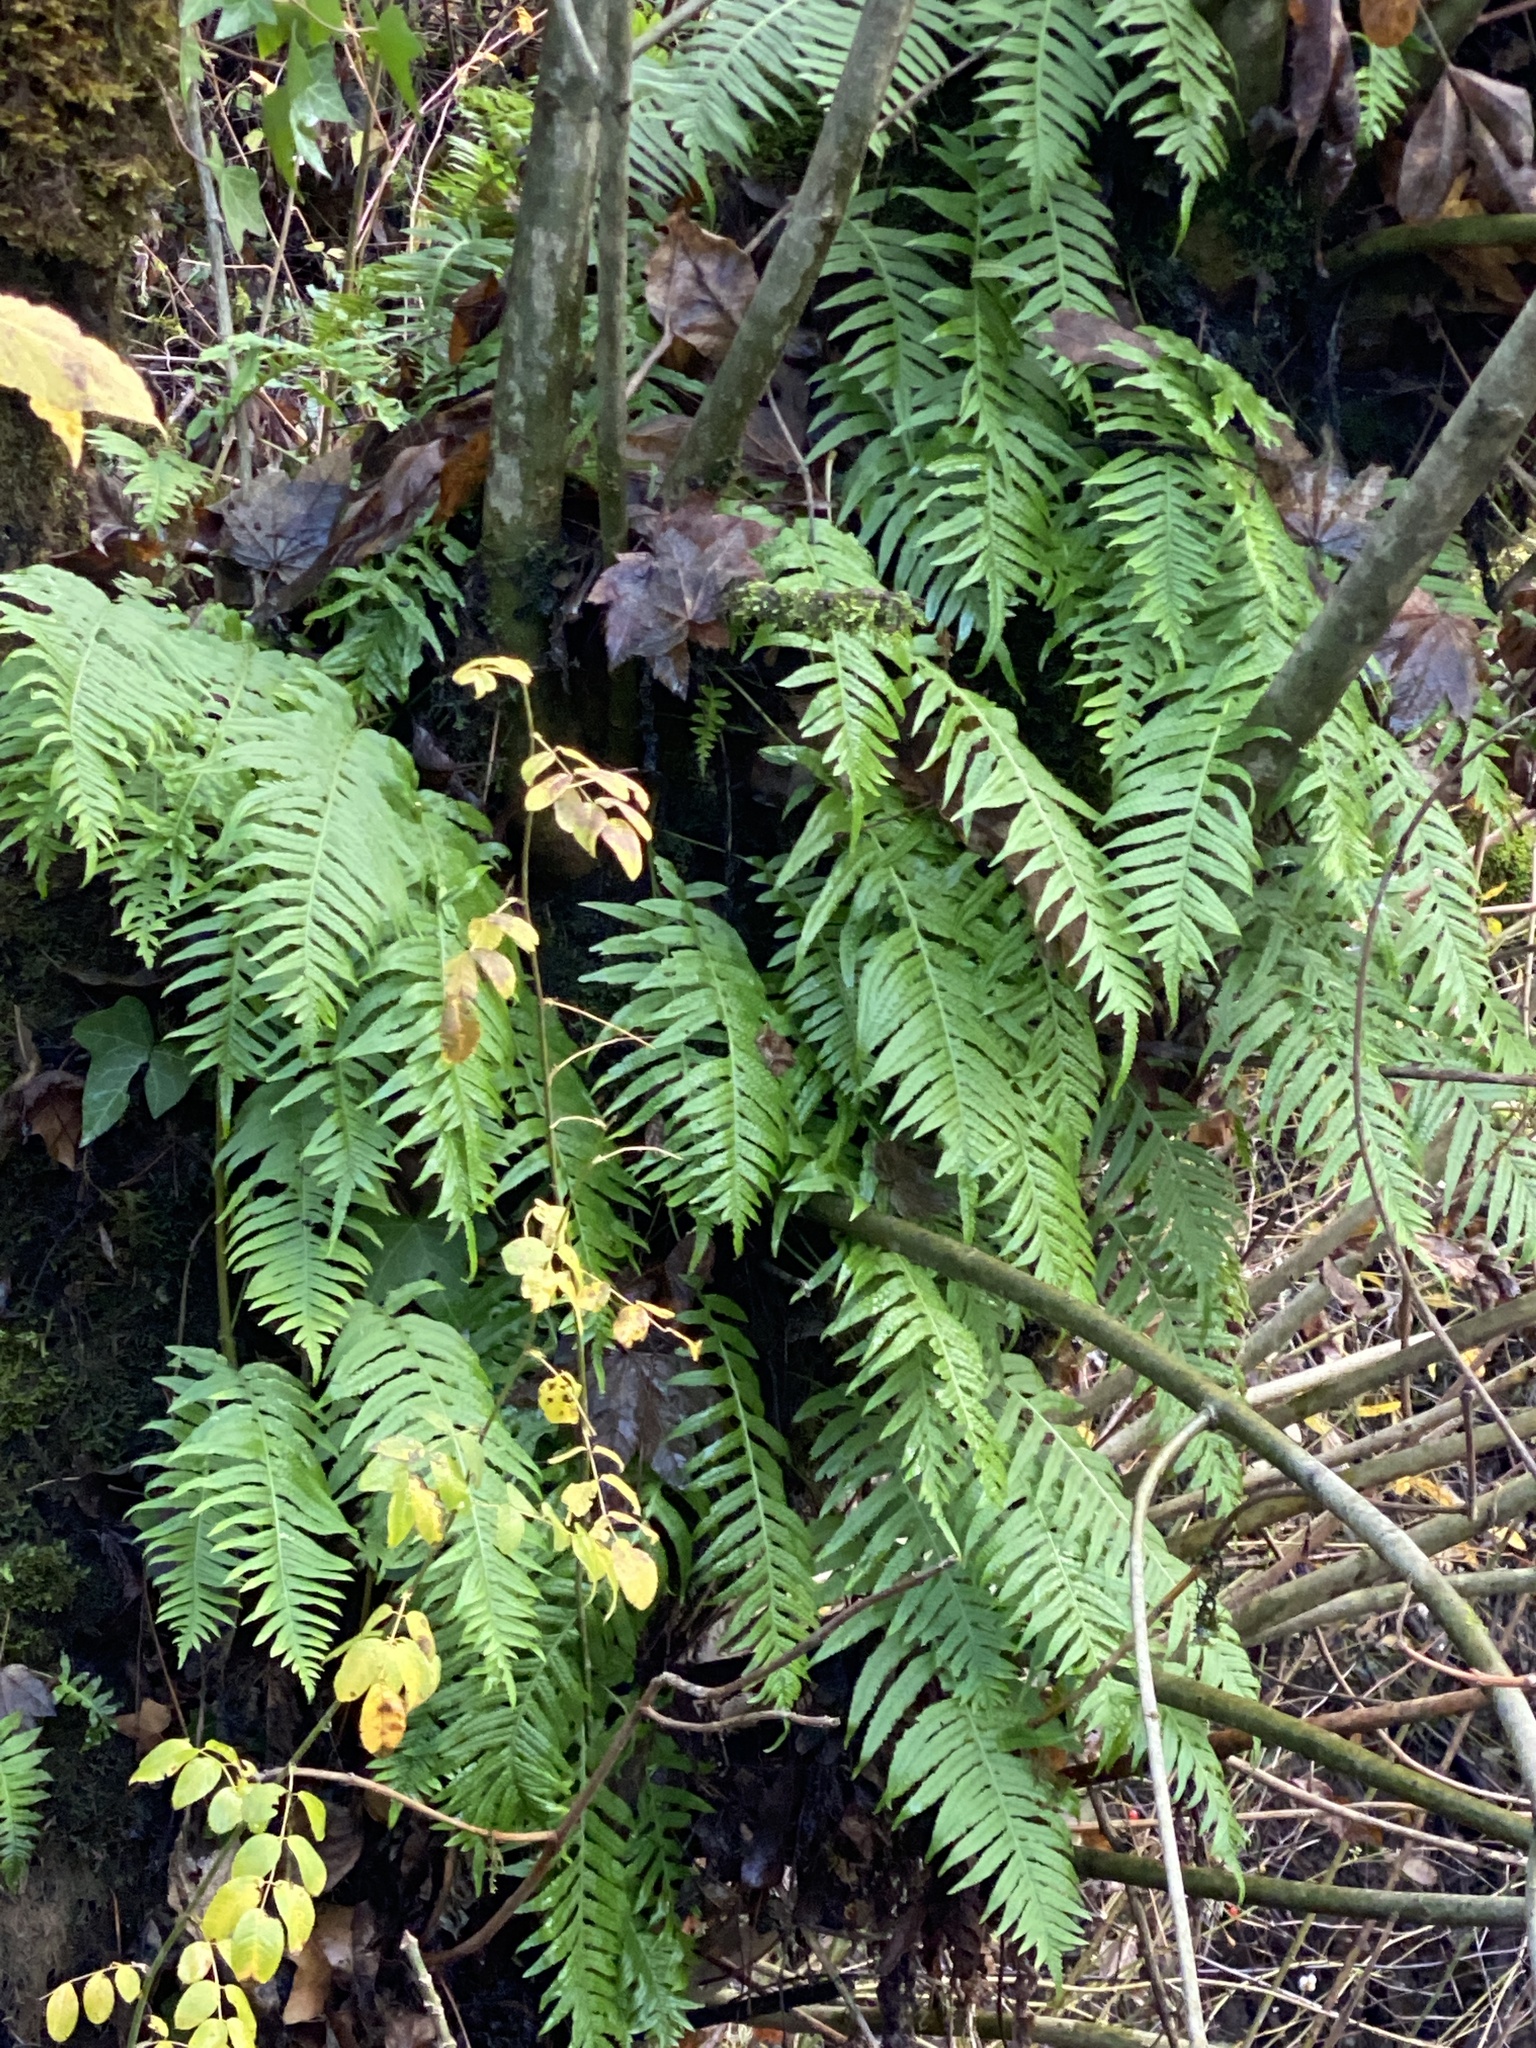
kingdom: Plantae
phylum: Tracheophyta
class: Polypodiopsida
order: Polypodiales
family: Polypodiaceae
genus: Polypodium
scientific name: Polypodium glycyrrhiza
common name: Licorice fern
